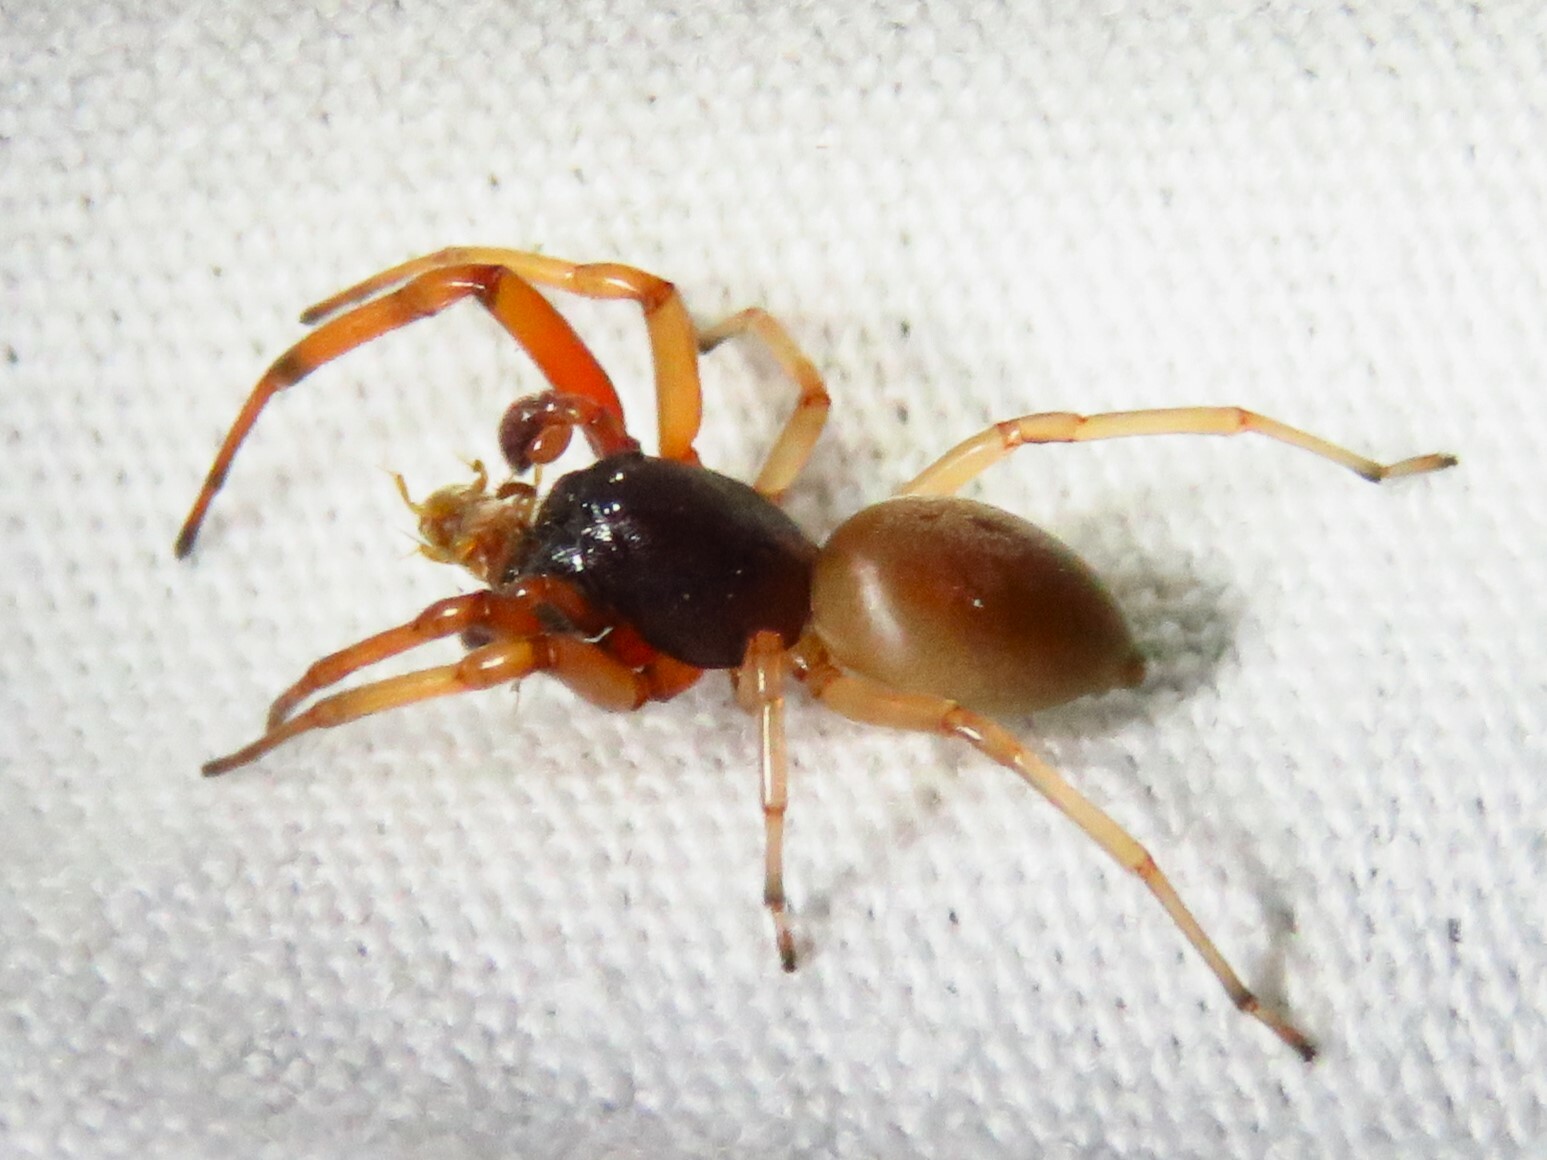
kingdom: Animalia
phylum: Arthropoda
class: Arachnida
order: Araneae
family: Trachelidae
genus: Trachelas
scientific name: Trachelas tranquillus
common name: Broad-faced sac spider
